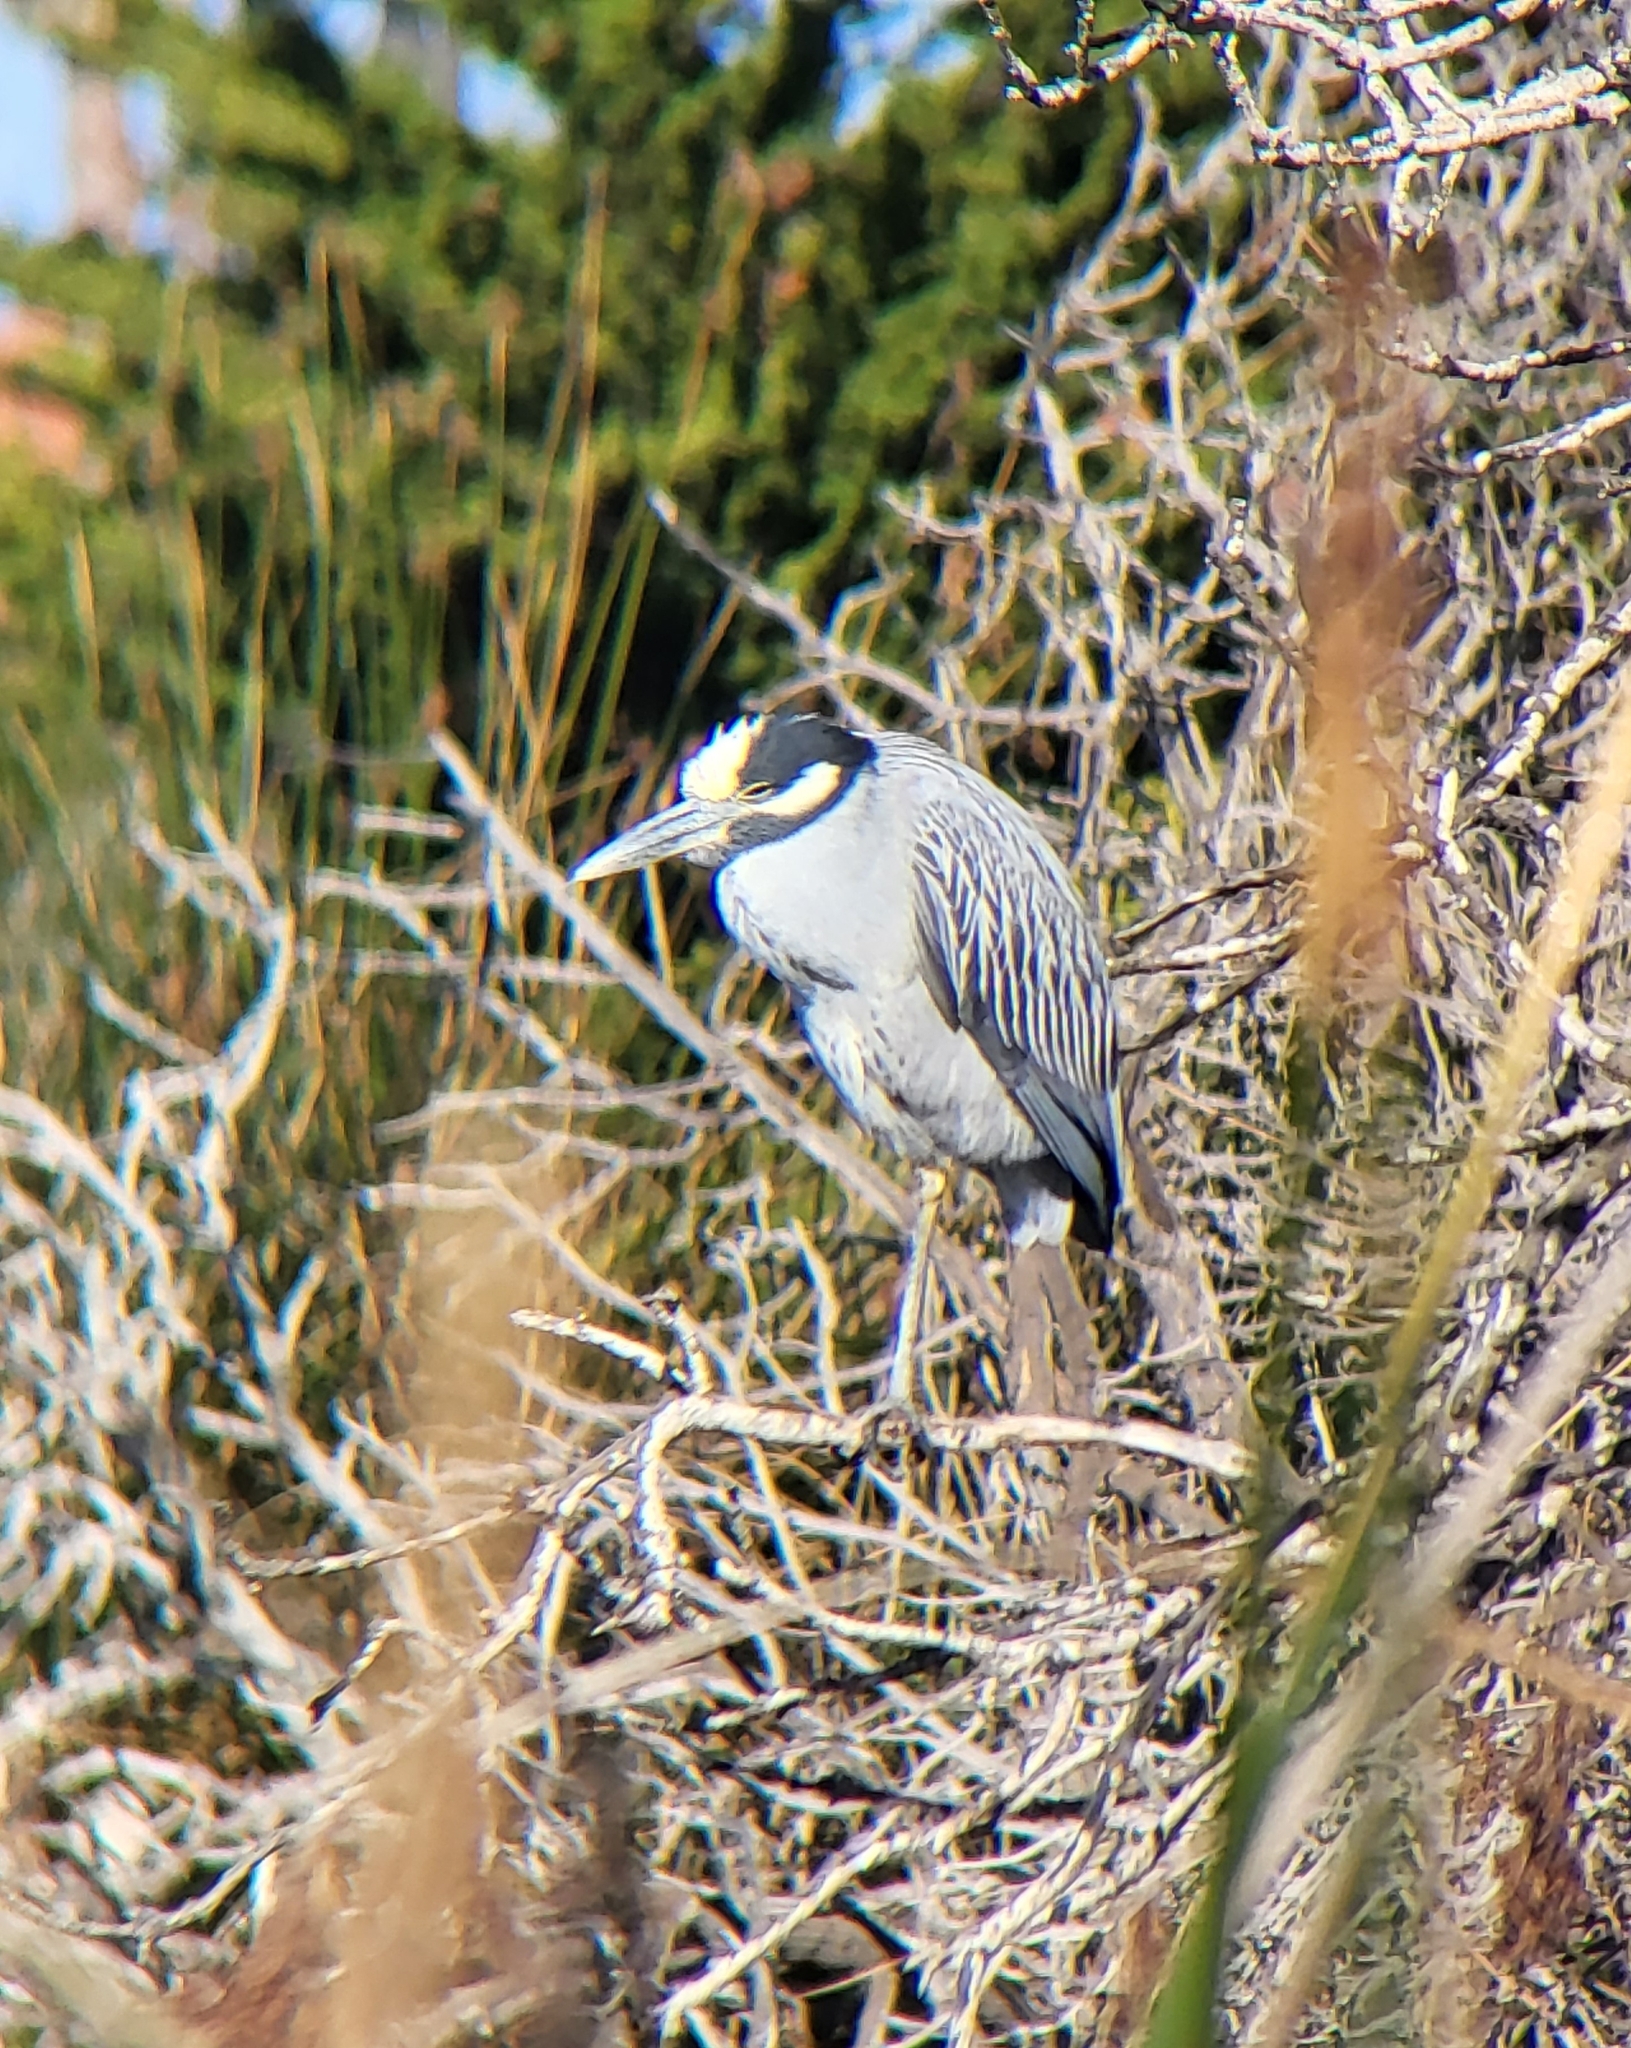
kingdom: Animalia
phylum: Chordata
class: Aves
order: Pelecaniformes
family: Ardeidae
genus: Nyctanassa
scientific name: Nyctanassa violacea
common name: Yellow-crowned night heron
